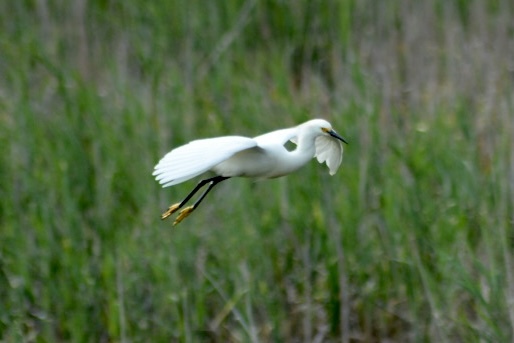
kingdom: Animalia
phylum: Chordata
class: Aves
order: Pelecaniformes
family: Ardeidae
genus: Egretta
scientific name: Egretta thula
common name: Snowy egret
